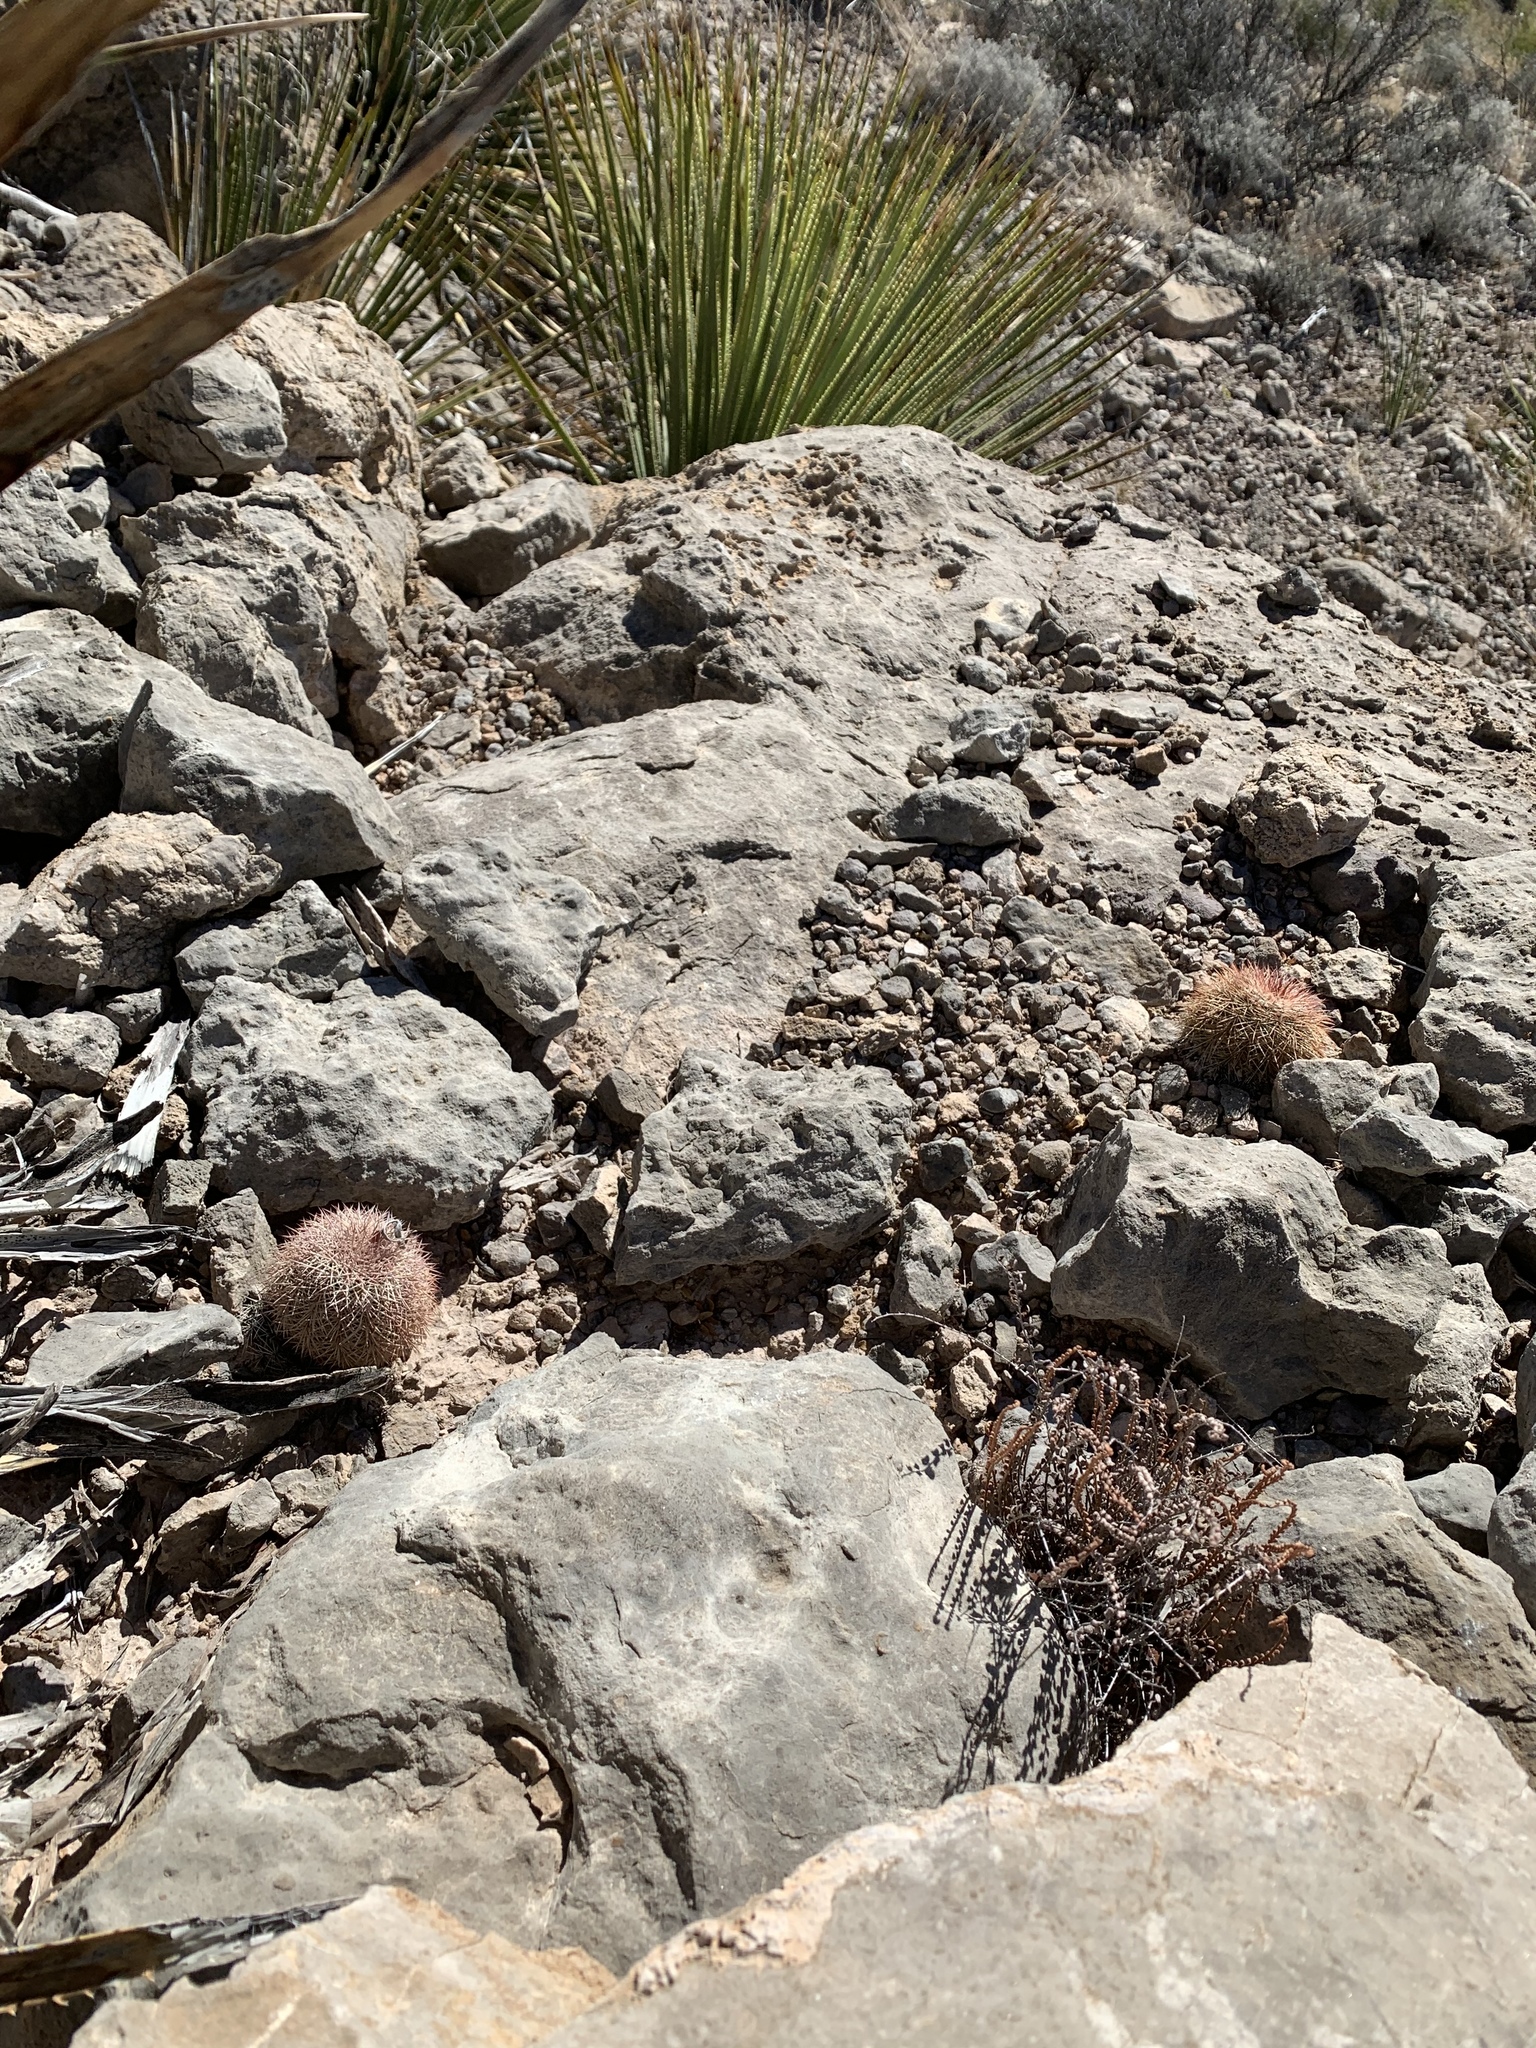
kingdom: Plantae
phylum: Tracheophyta
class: Magnoliopsida
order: Caryophyllales
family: Cactaceae
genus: Echinocereus
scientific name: Echinocereus dasyacanthus
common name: Spiny hedgehog cactus
